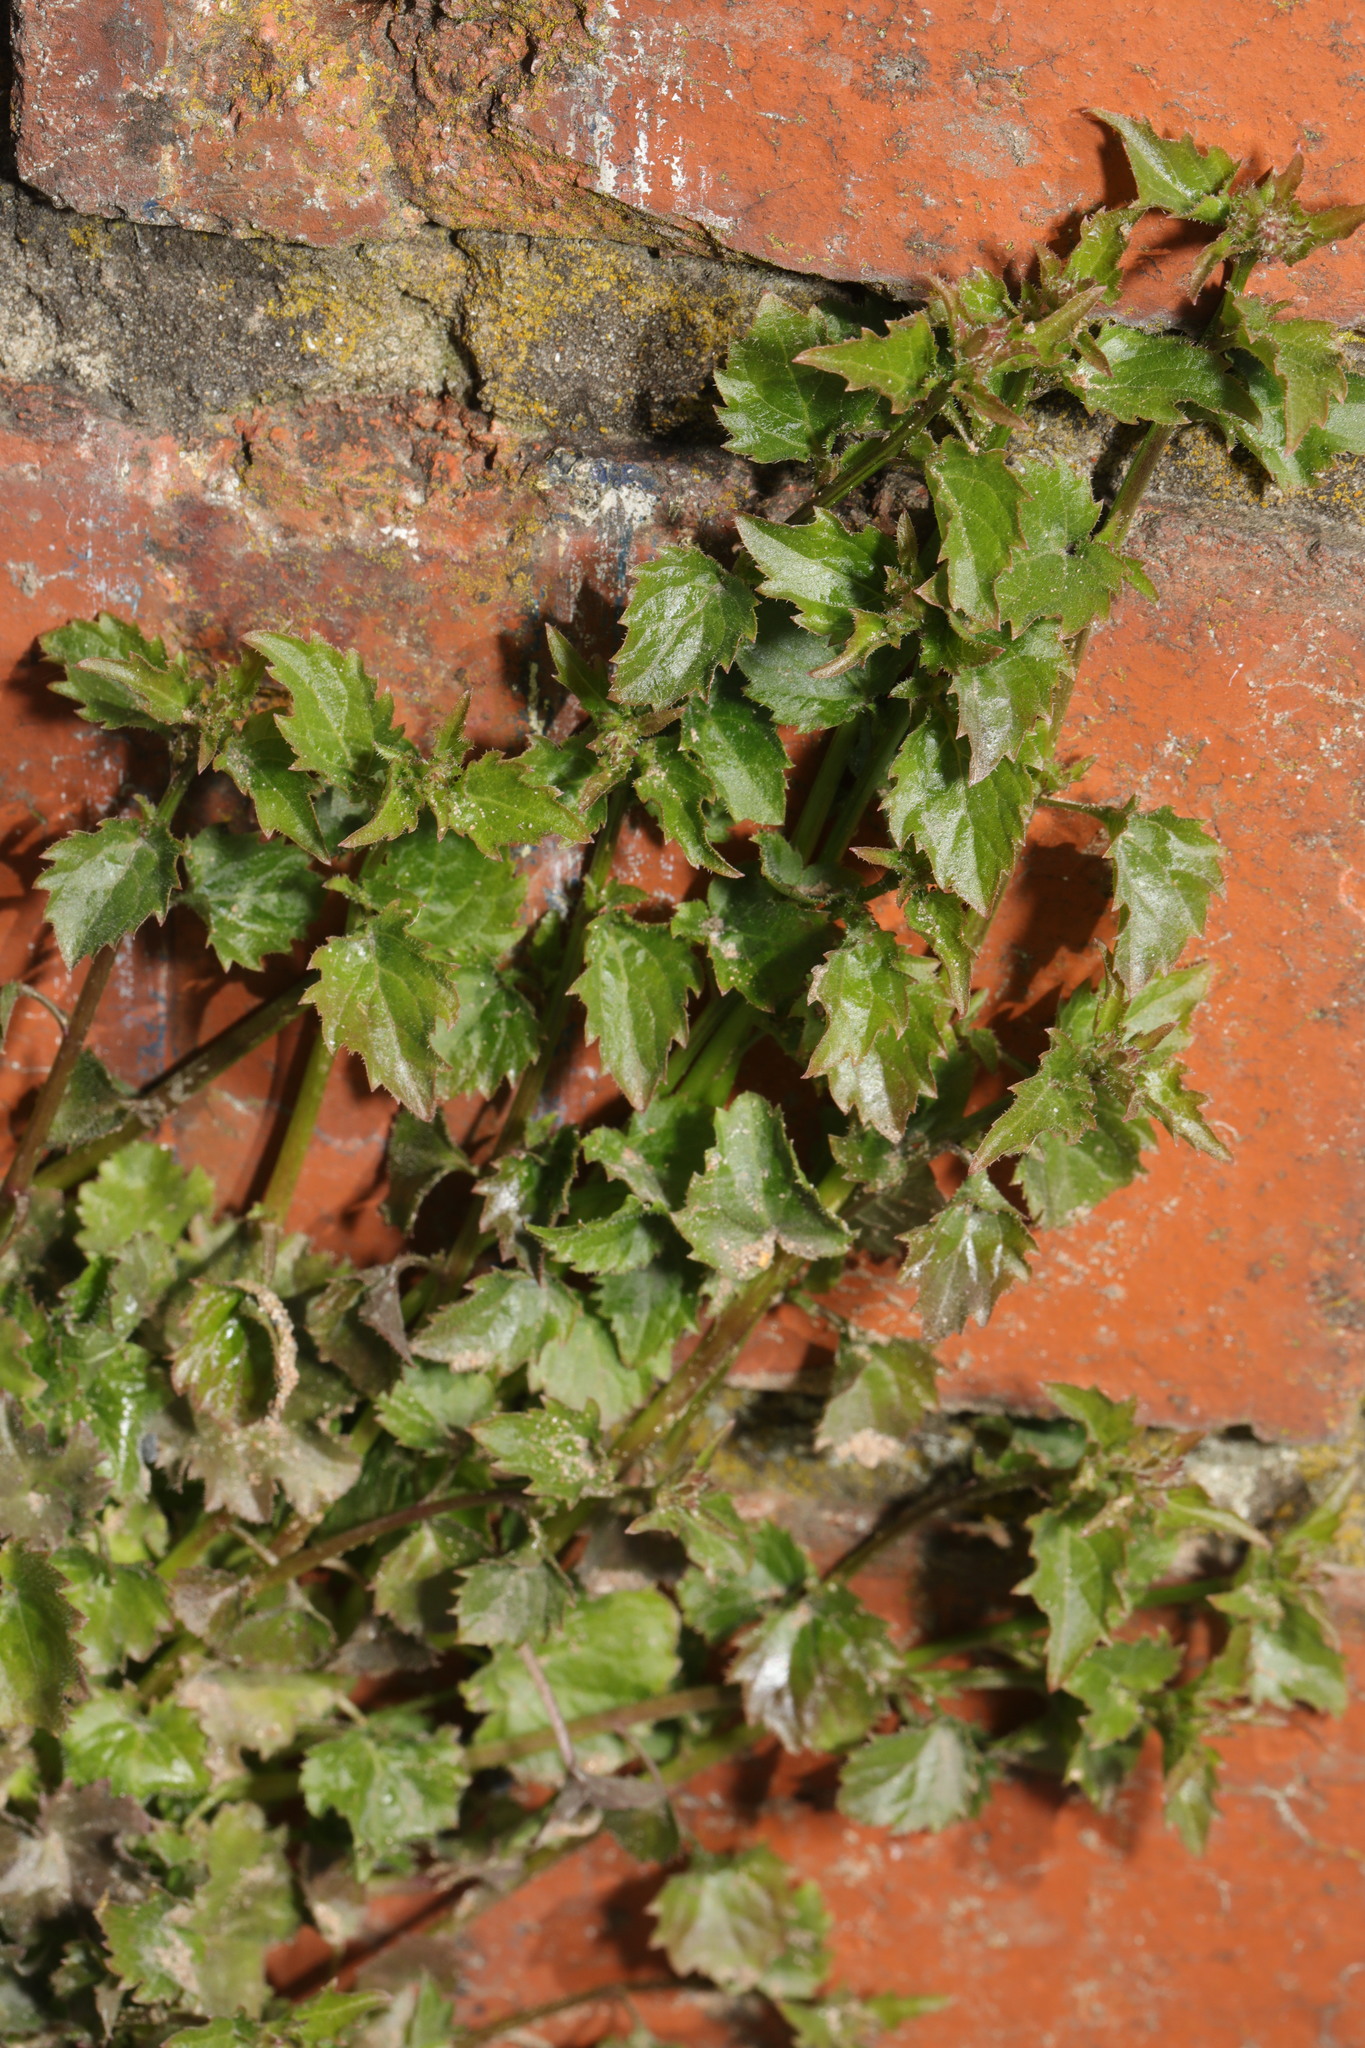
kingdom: Plantae
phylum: Tracheophyta
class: Magnoliopsida
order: Asterales
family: Campanulaceae
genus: Campanula
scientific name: Campanula poscharskyana
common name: Trailing bellflower
